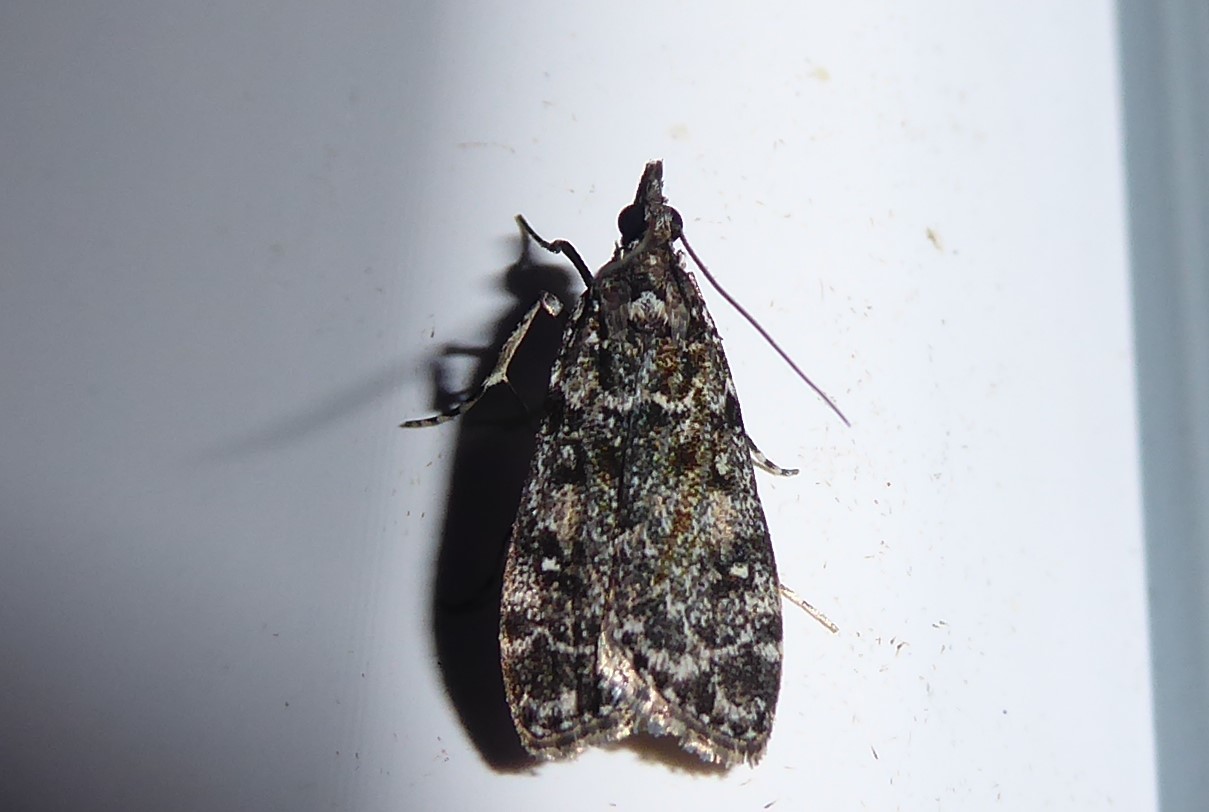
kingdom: Animalia
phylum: Arthropoda
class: Insecta
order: Lepidoptera
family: Crambidae
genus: Eudonia
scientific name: Eudonia philerga
